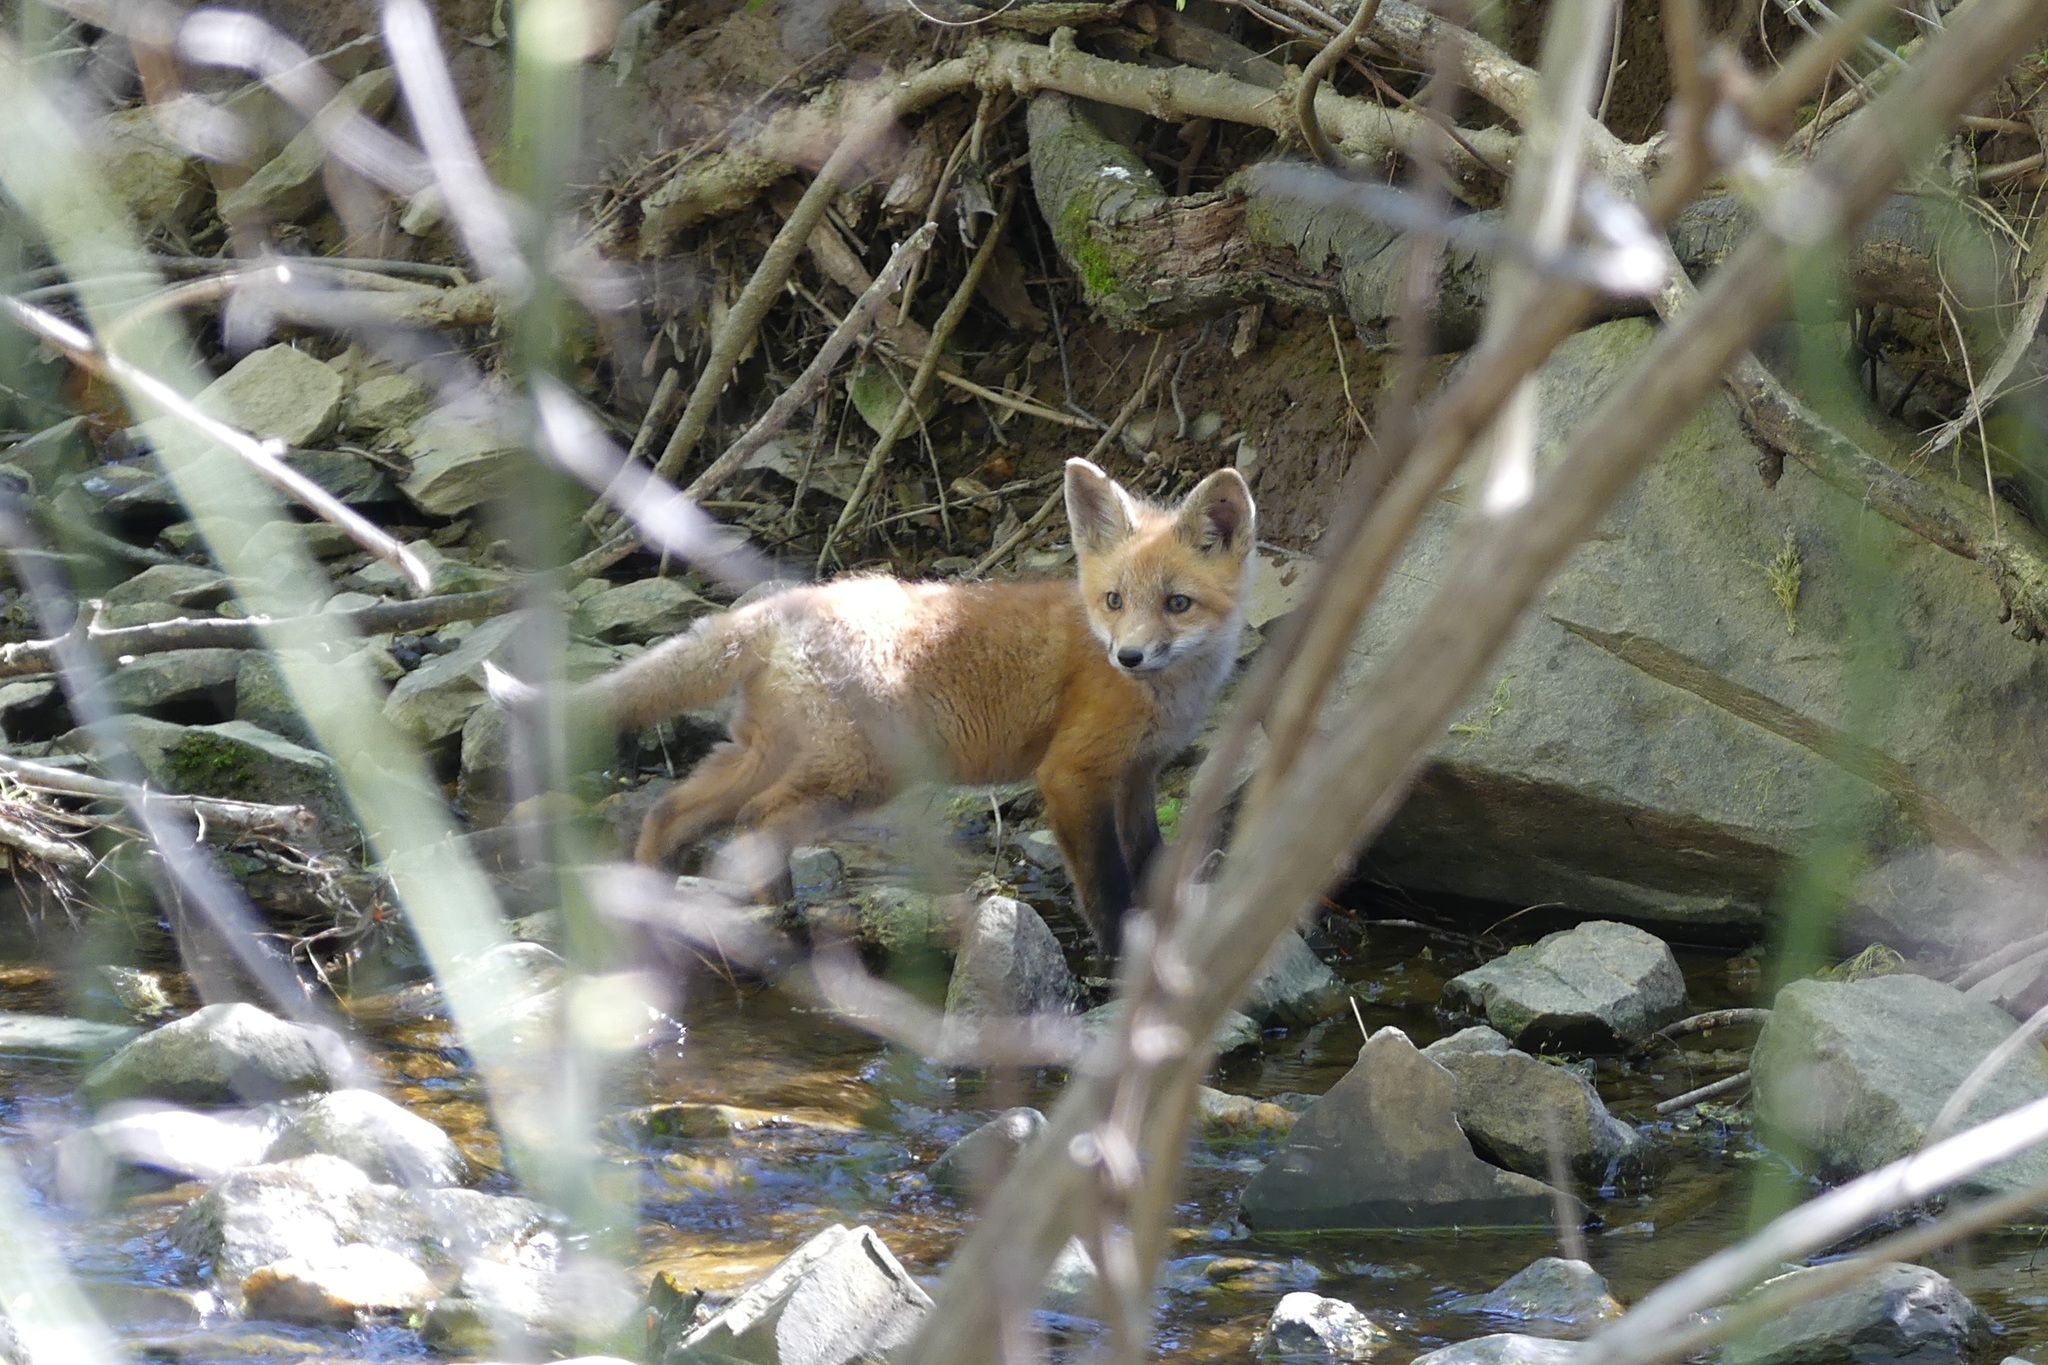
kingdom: Animalia
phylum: Chordata
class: Mammalia
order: Carnivora
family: Canidae
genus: Vulpes
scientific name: Vulpes vulpes
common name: Red fox
